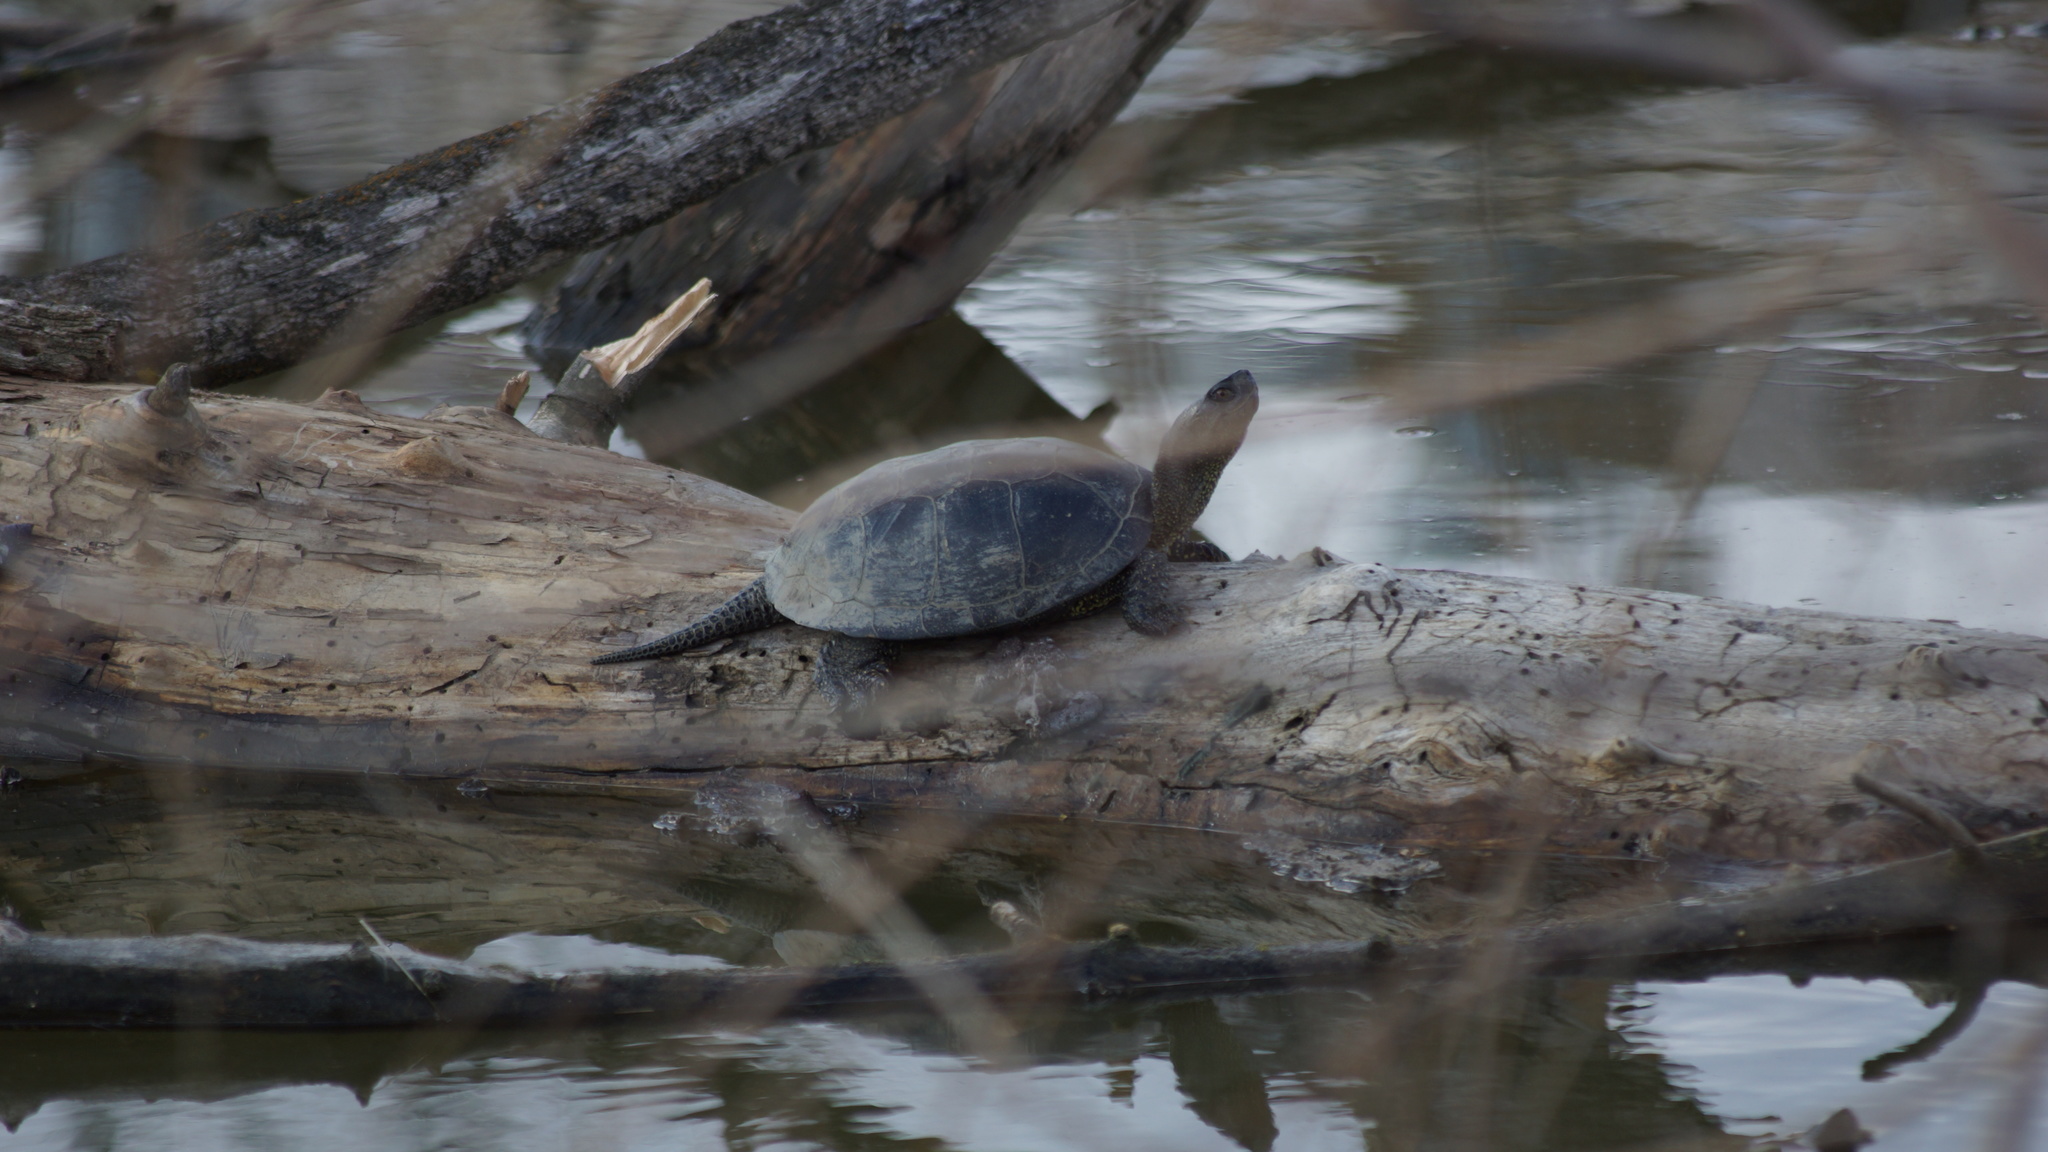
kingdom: Animalia
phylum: Chordata
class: Testudines
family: Emydidae
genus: Emys
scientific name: Emys orbicularis
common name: European pond turtle
